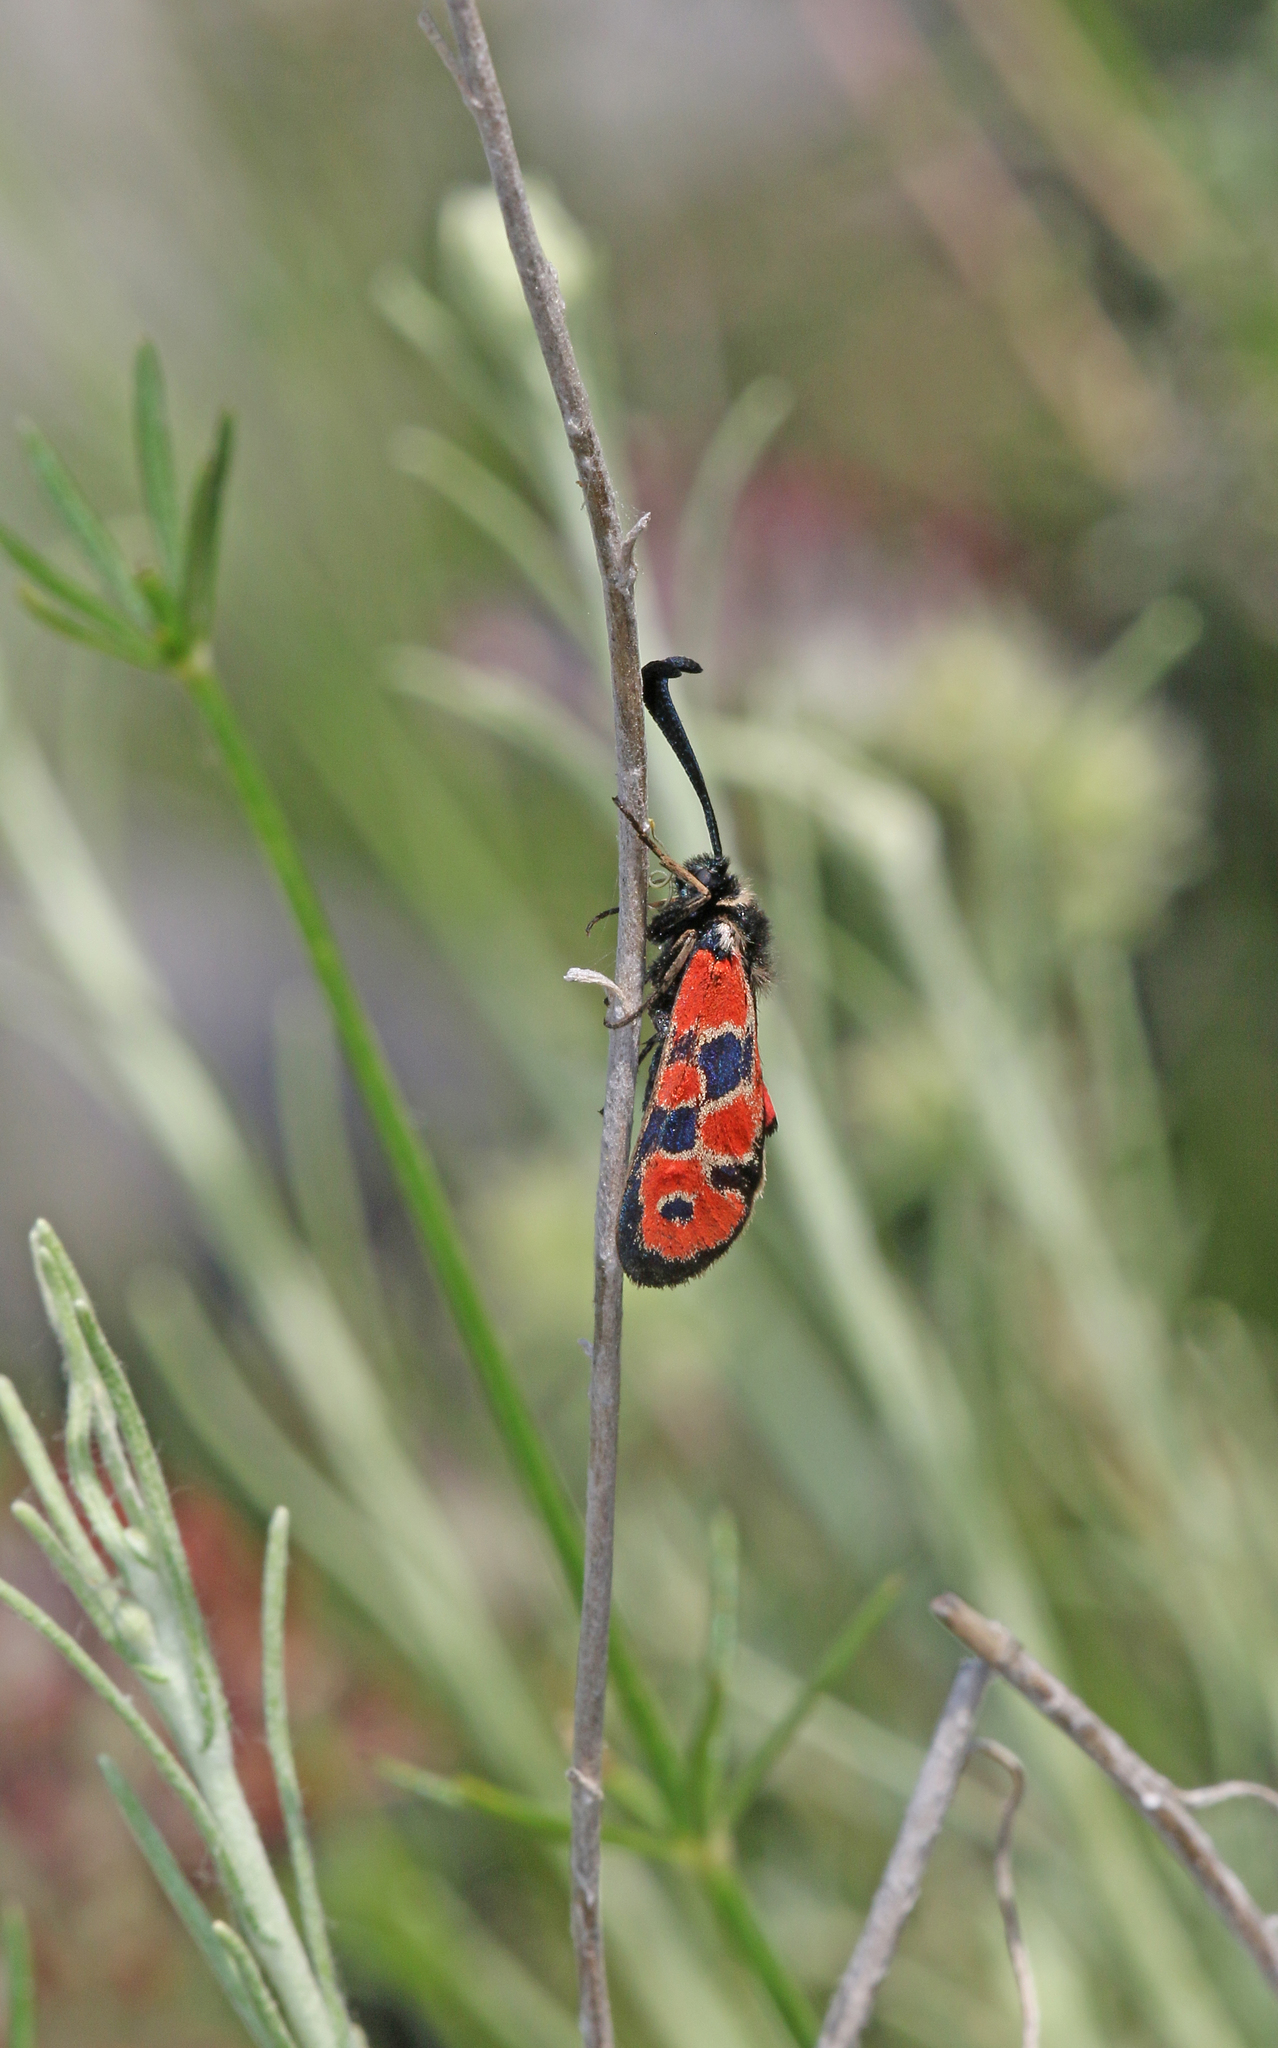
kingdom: Animalia
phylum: Arthropoda
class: Insecta
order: Lepidoptera
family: Zygaenidae
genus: Zygaena
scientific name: Zygaena hilaris
